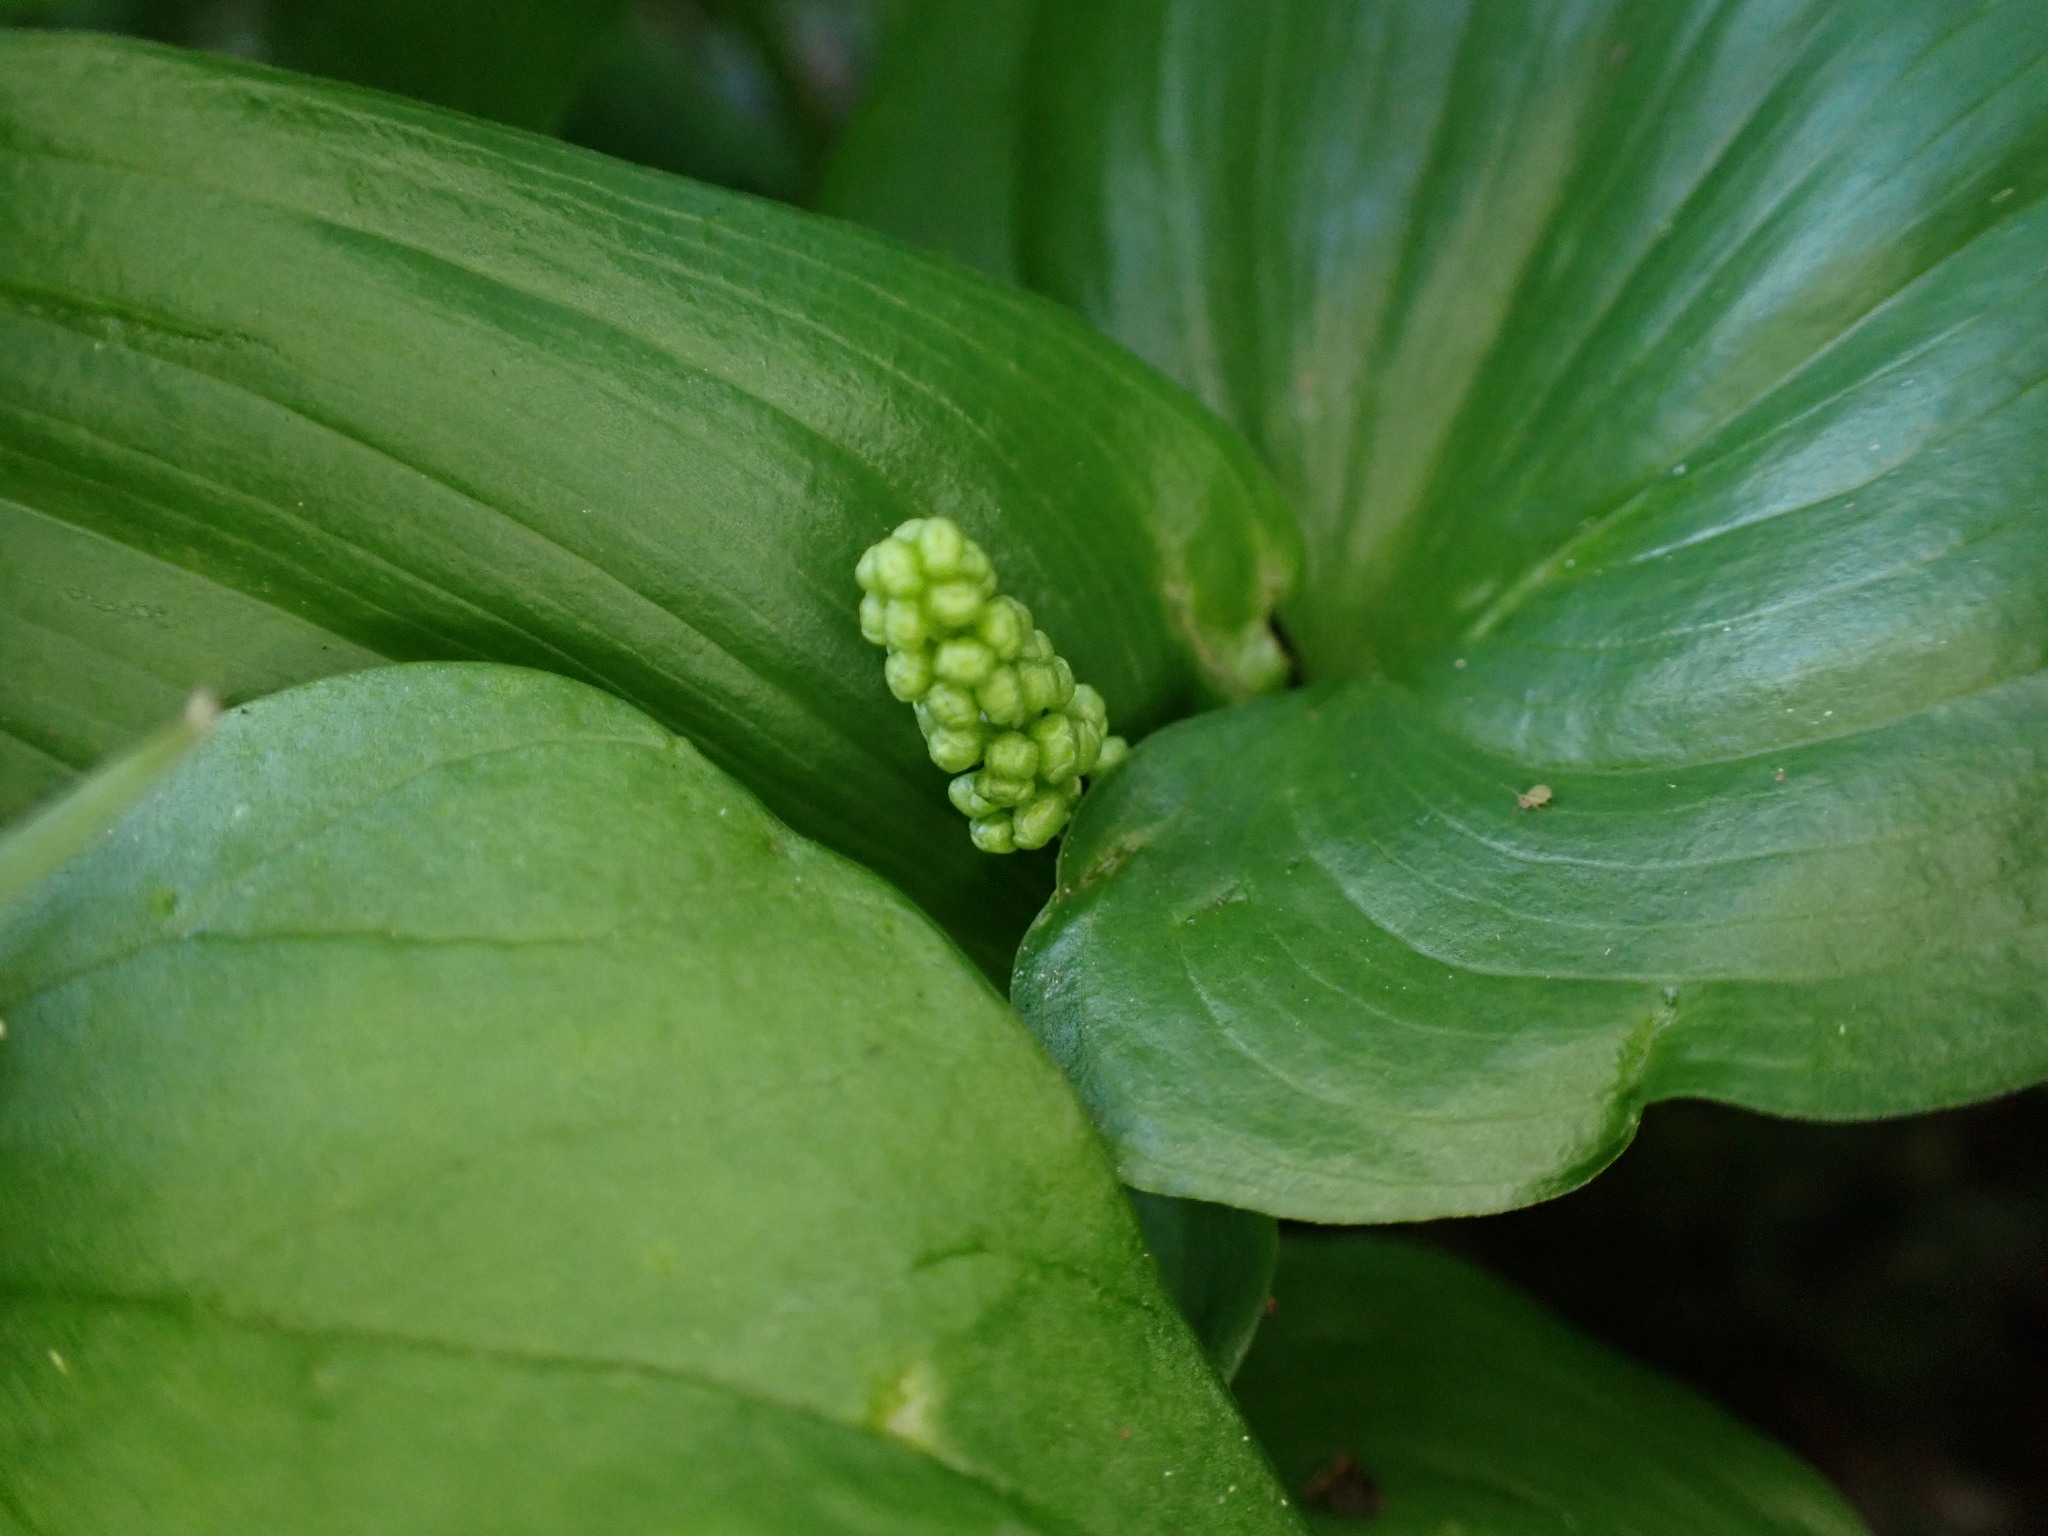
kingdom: Plantae
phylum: Tracheophyta
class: Liliopsida
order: Asparagales
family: Asparagaceae
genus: Maianthemum
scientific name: Maianthemum dilatatum
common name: False lily-of-the-valley
